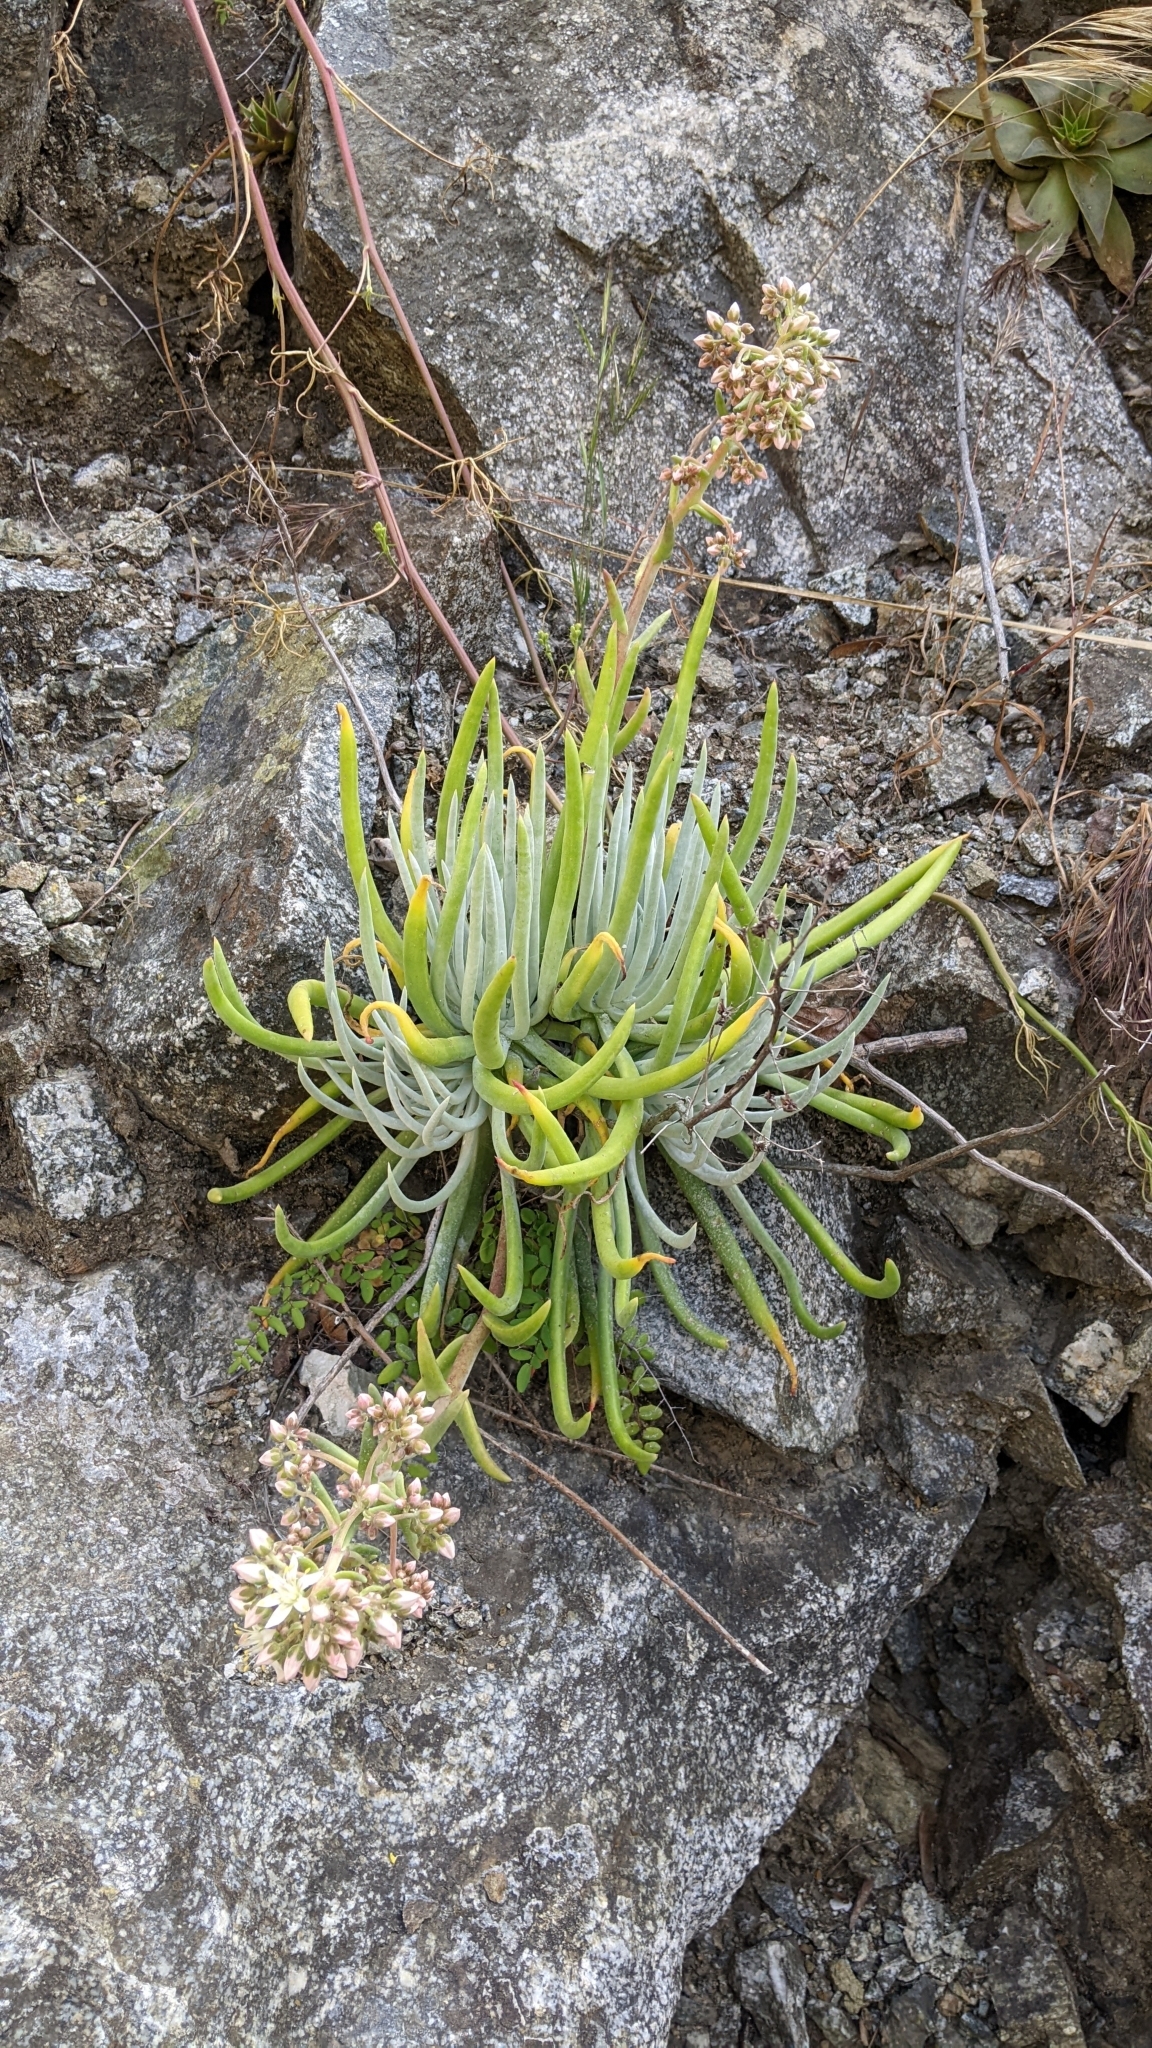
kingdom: Plantae
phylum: Tracheophyta
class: Magnoliopsida
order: Saxifragales
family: Crassulaceae
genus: Dudleya
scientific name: Dudleya densiflora
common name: San gabriel mountains dudleya
